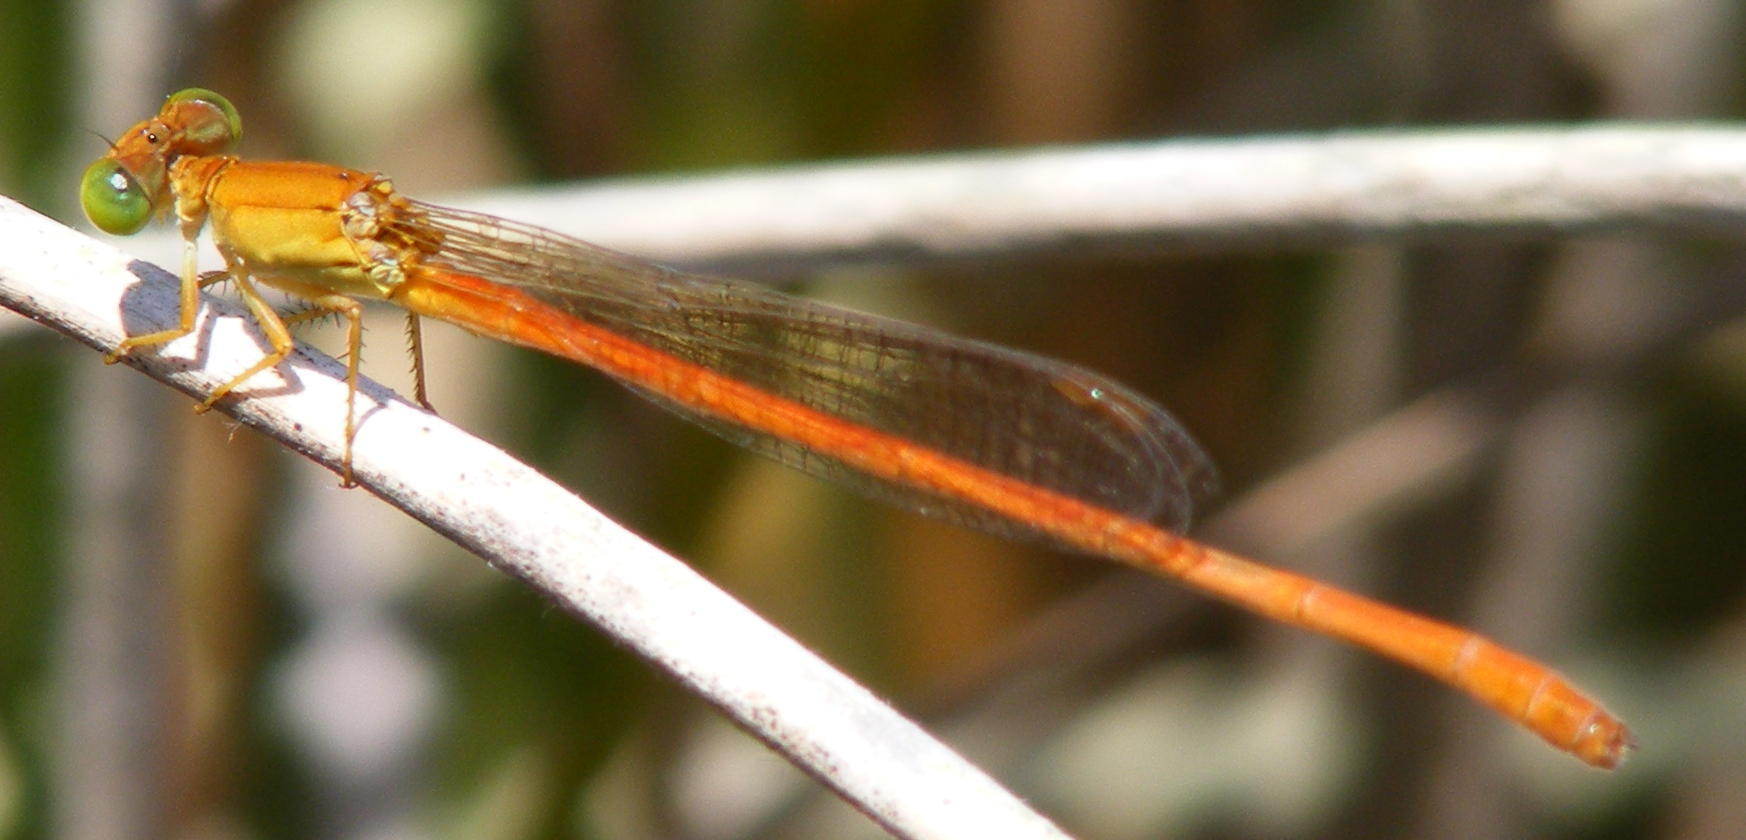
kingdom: Animalia
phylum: Arthropoda
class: Insecta
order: Odonata
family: Coenagrionidae
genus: Ceriagrion
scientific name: Ceriagrion glabrum
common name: Common pond damsel
